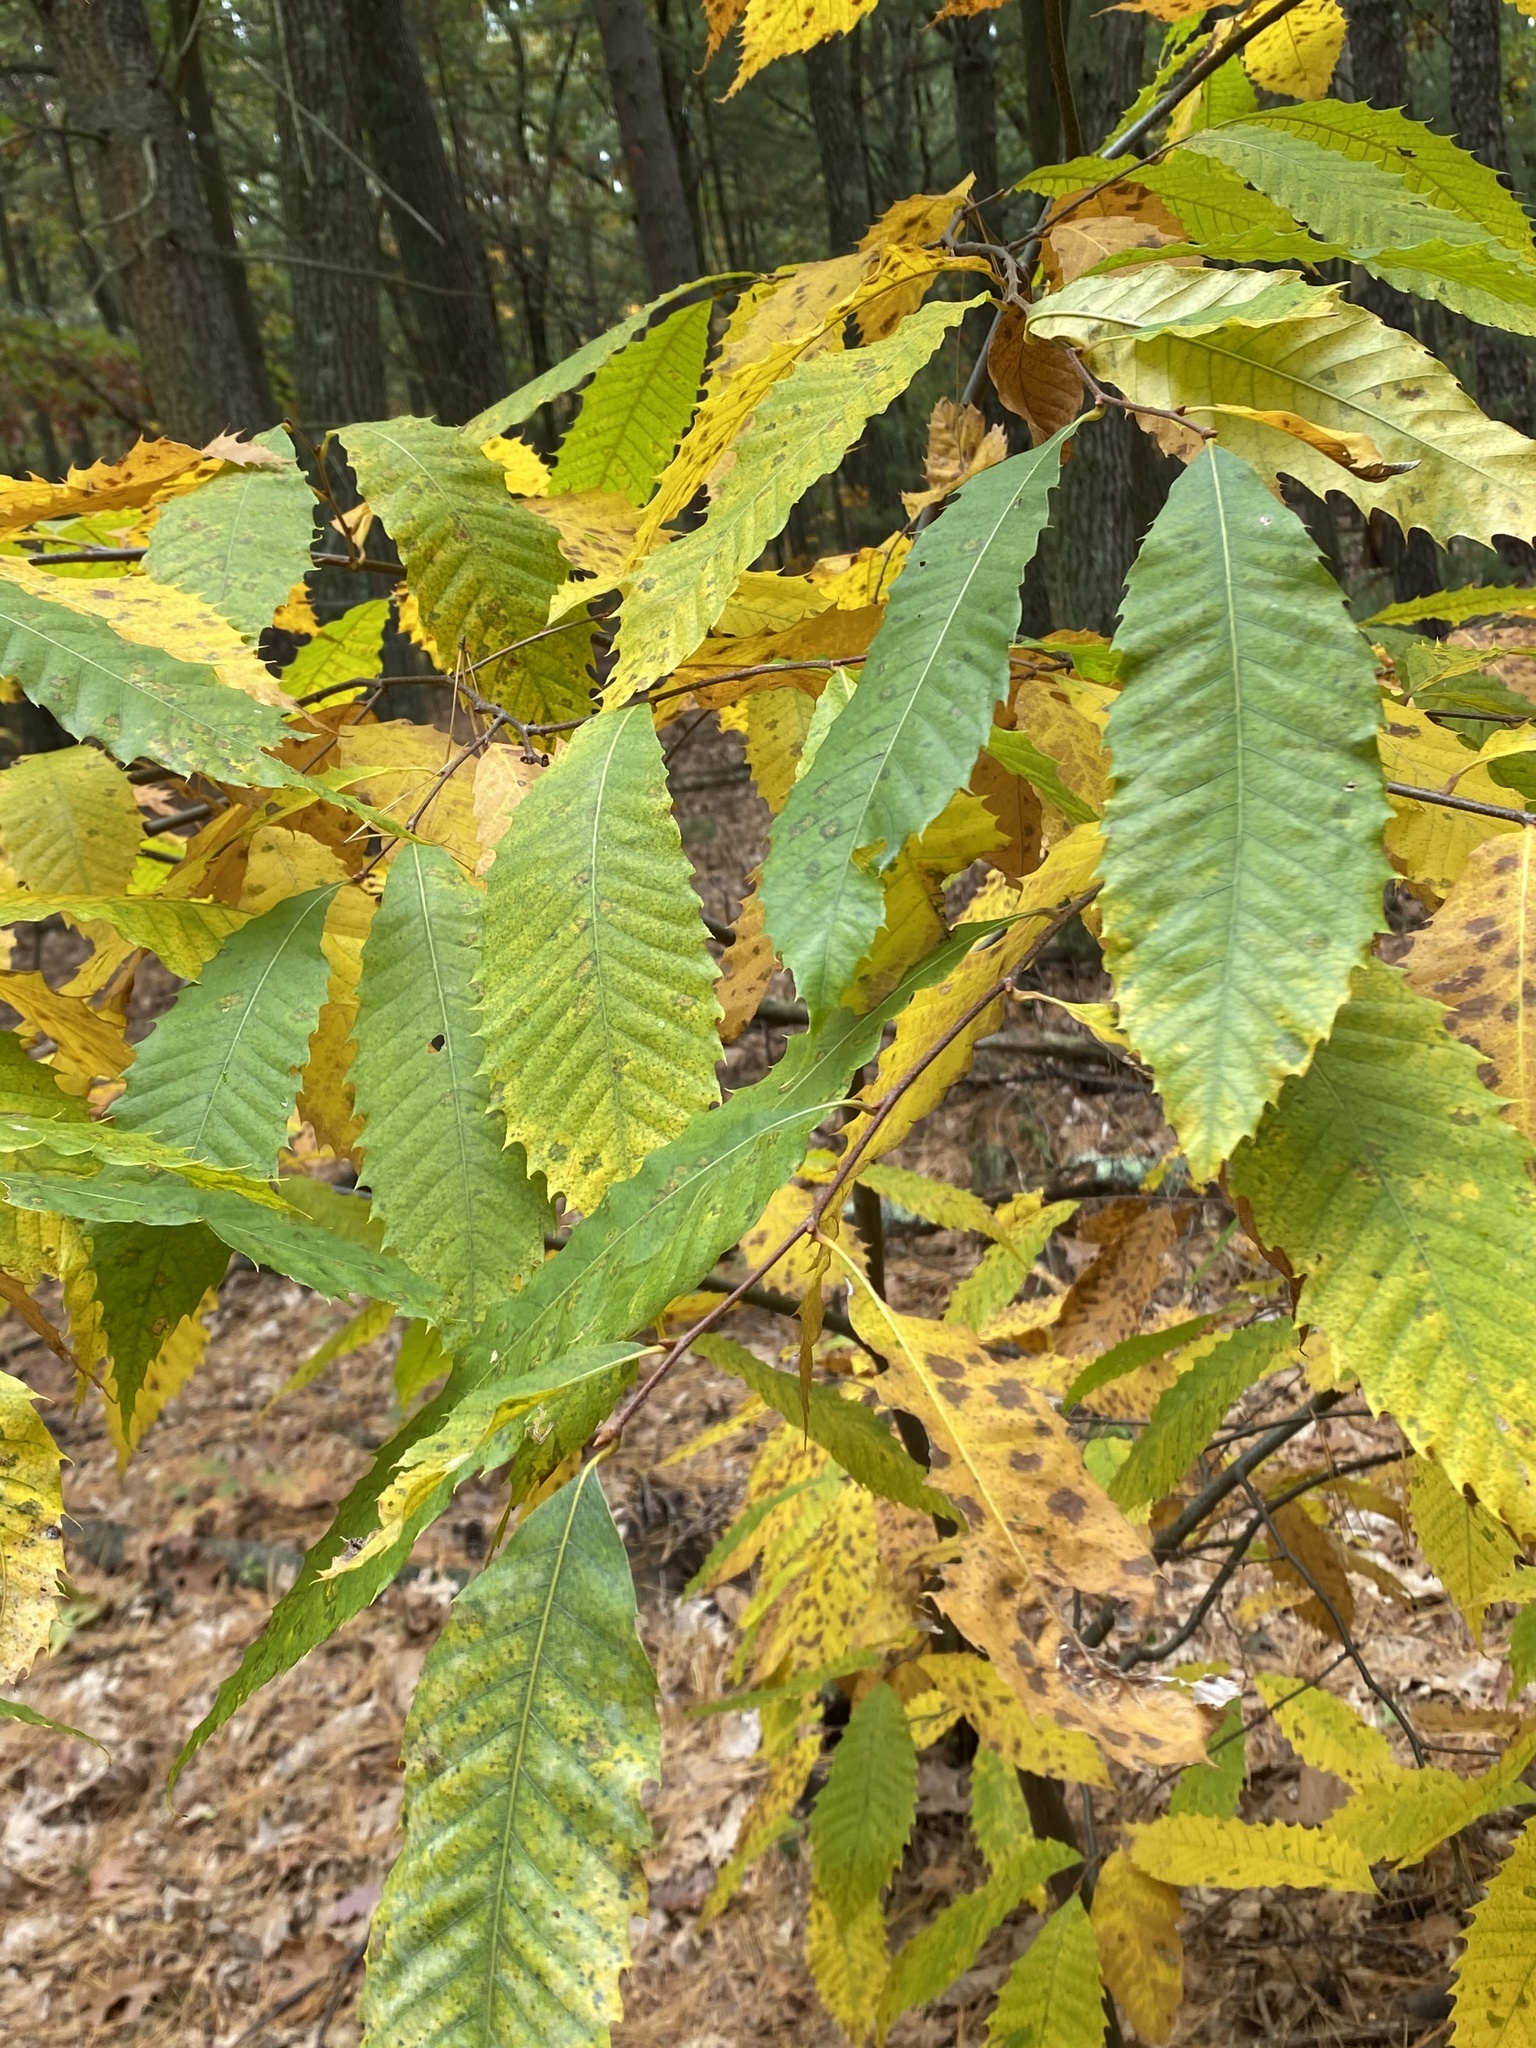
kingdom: Plantae
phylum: Tracheophyta
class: Magnoliopsida
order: Fagales
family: Fagaceae
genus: Castanea
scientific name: Castanea dentata
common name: American chestnut
